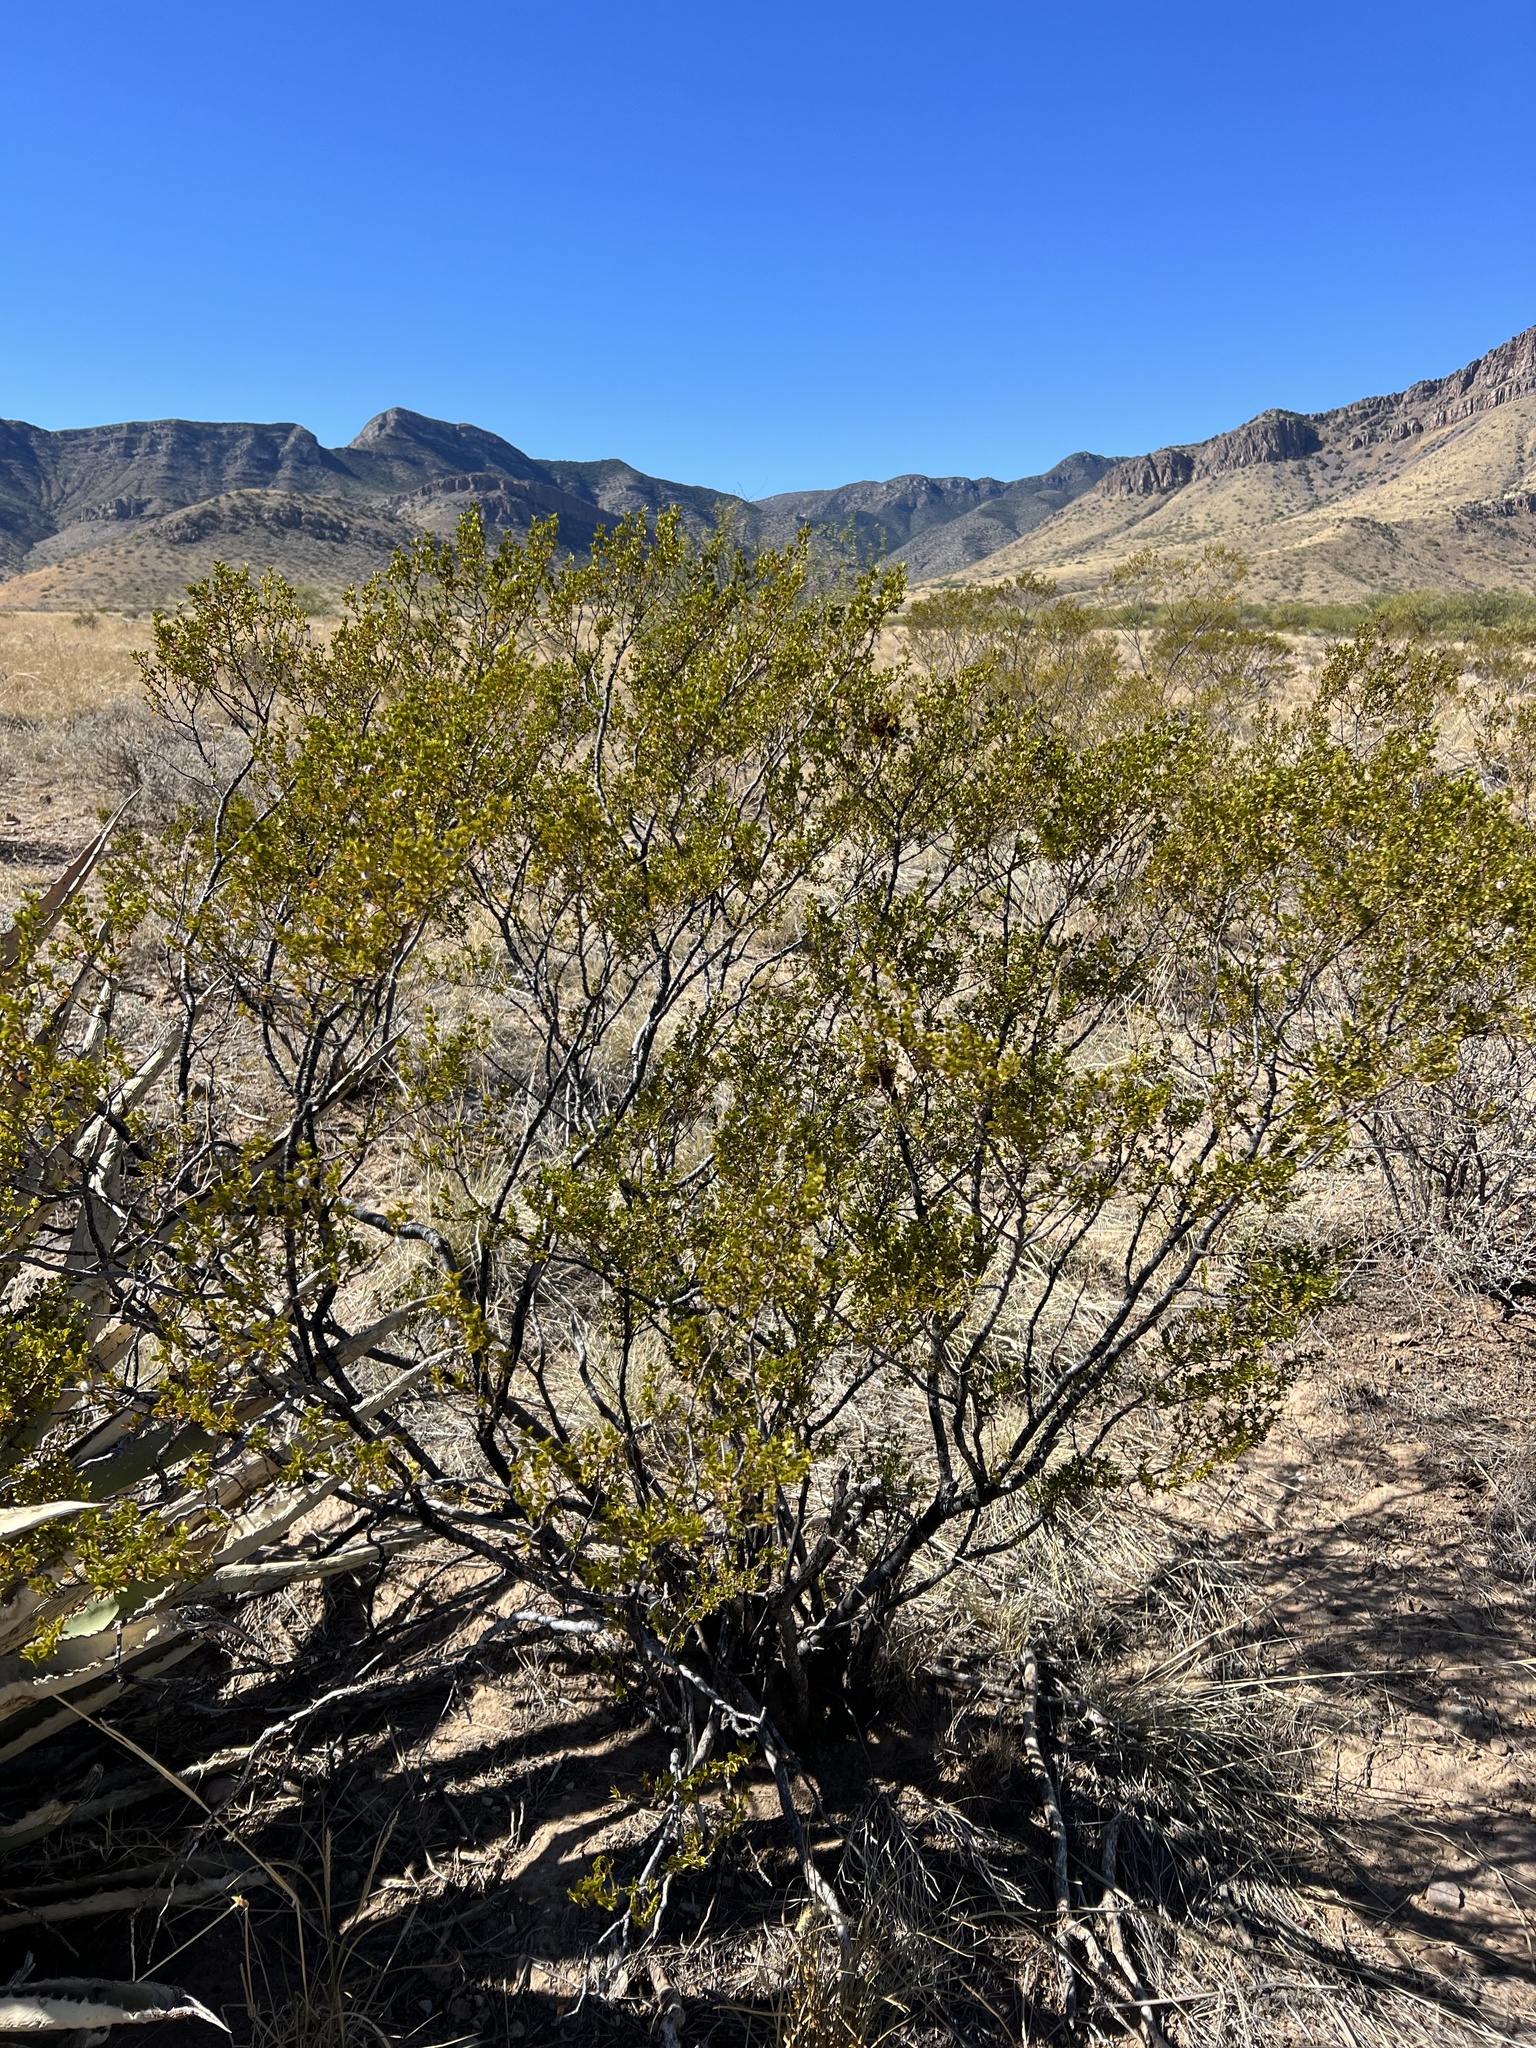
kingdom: Plantae
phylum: Tracheophyta
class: Magnoliopsida
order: Zygophyllales
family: Zygophyllaceae
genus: Larrea
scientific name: Larrea tridentata
